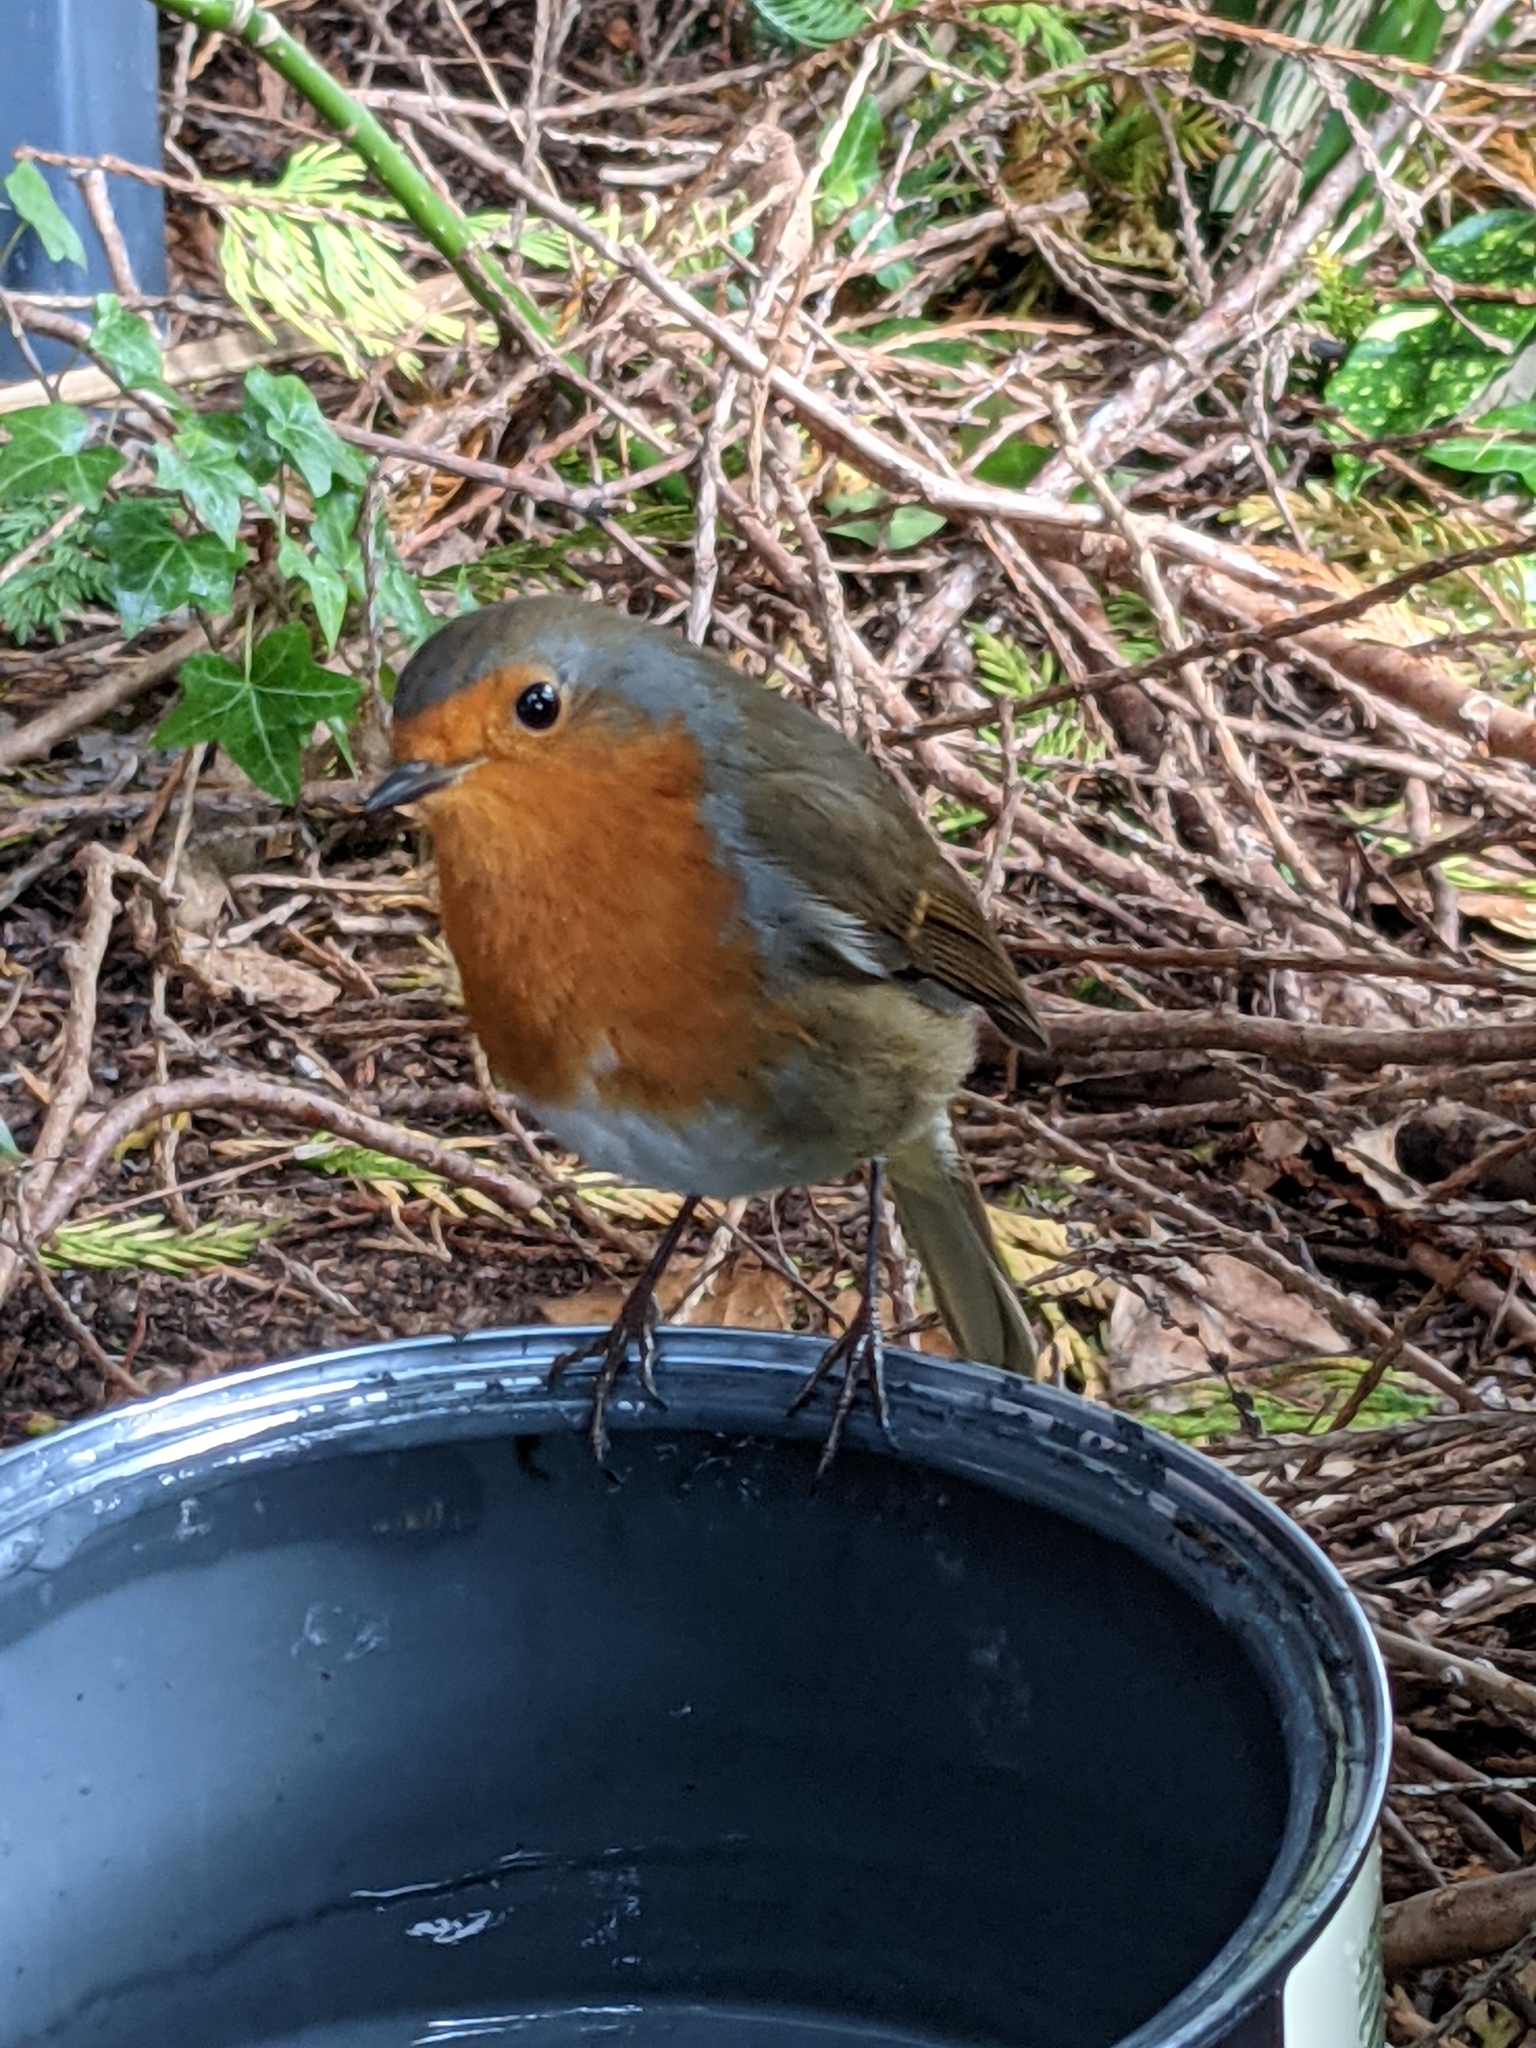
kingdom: Animalia
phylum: Chordata
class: Aves
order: Passeriformes
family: Muscicapidae
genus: Erithacus
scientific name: Erithacus rubecula
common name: European robin
